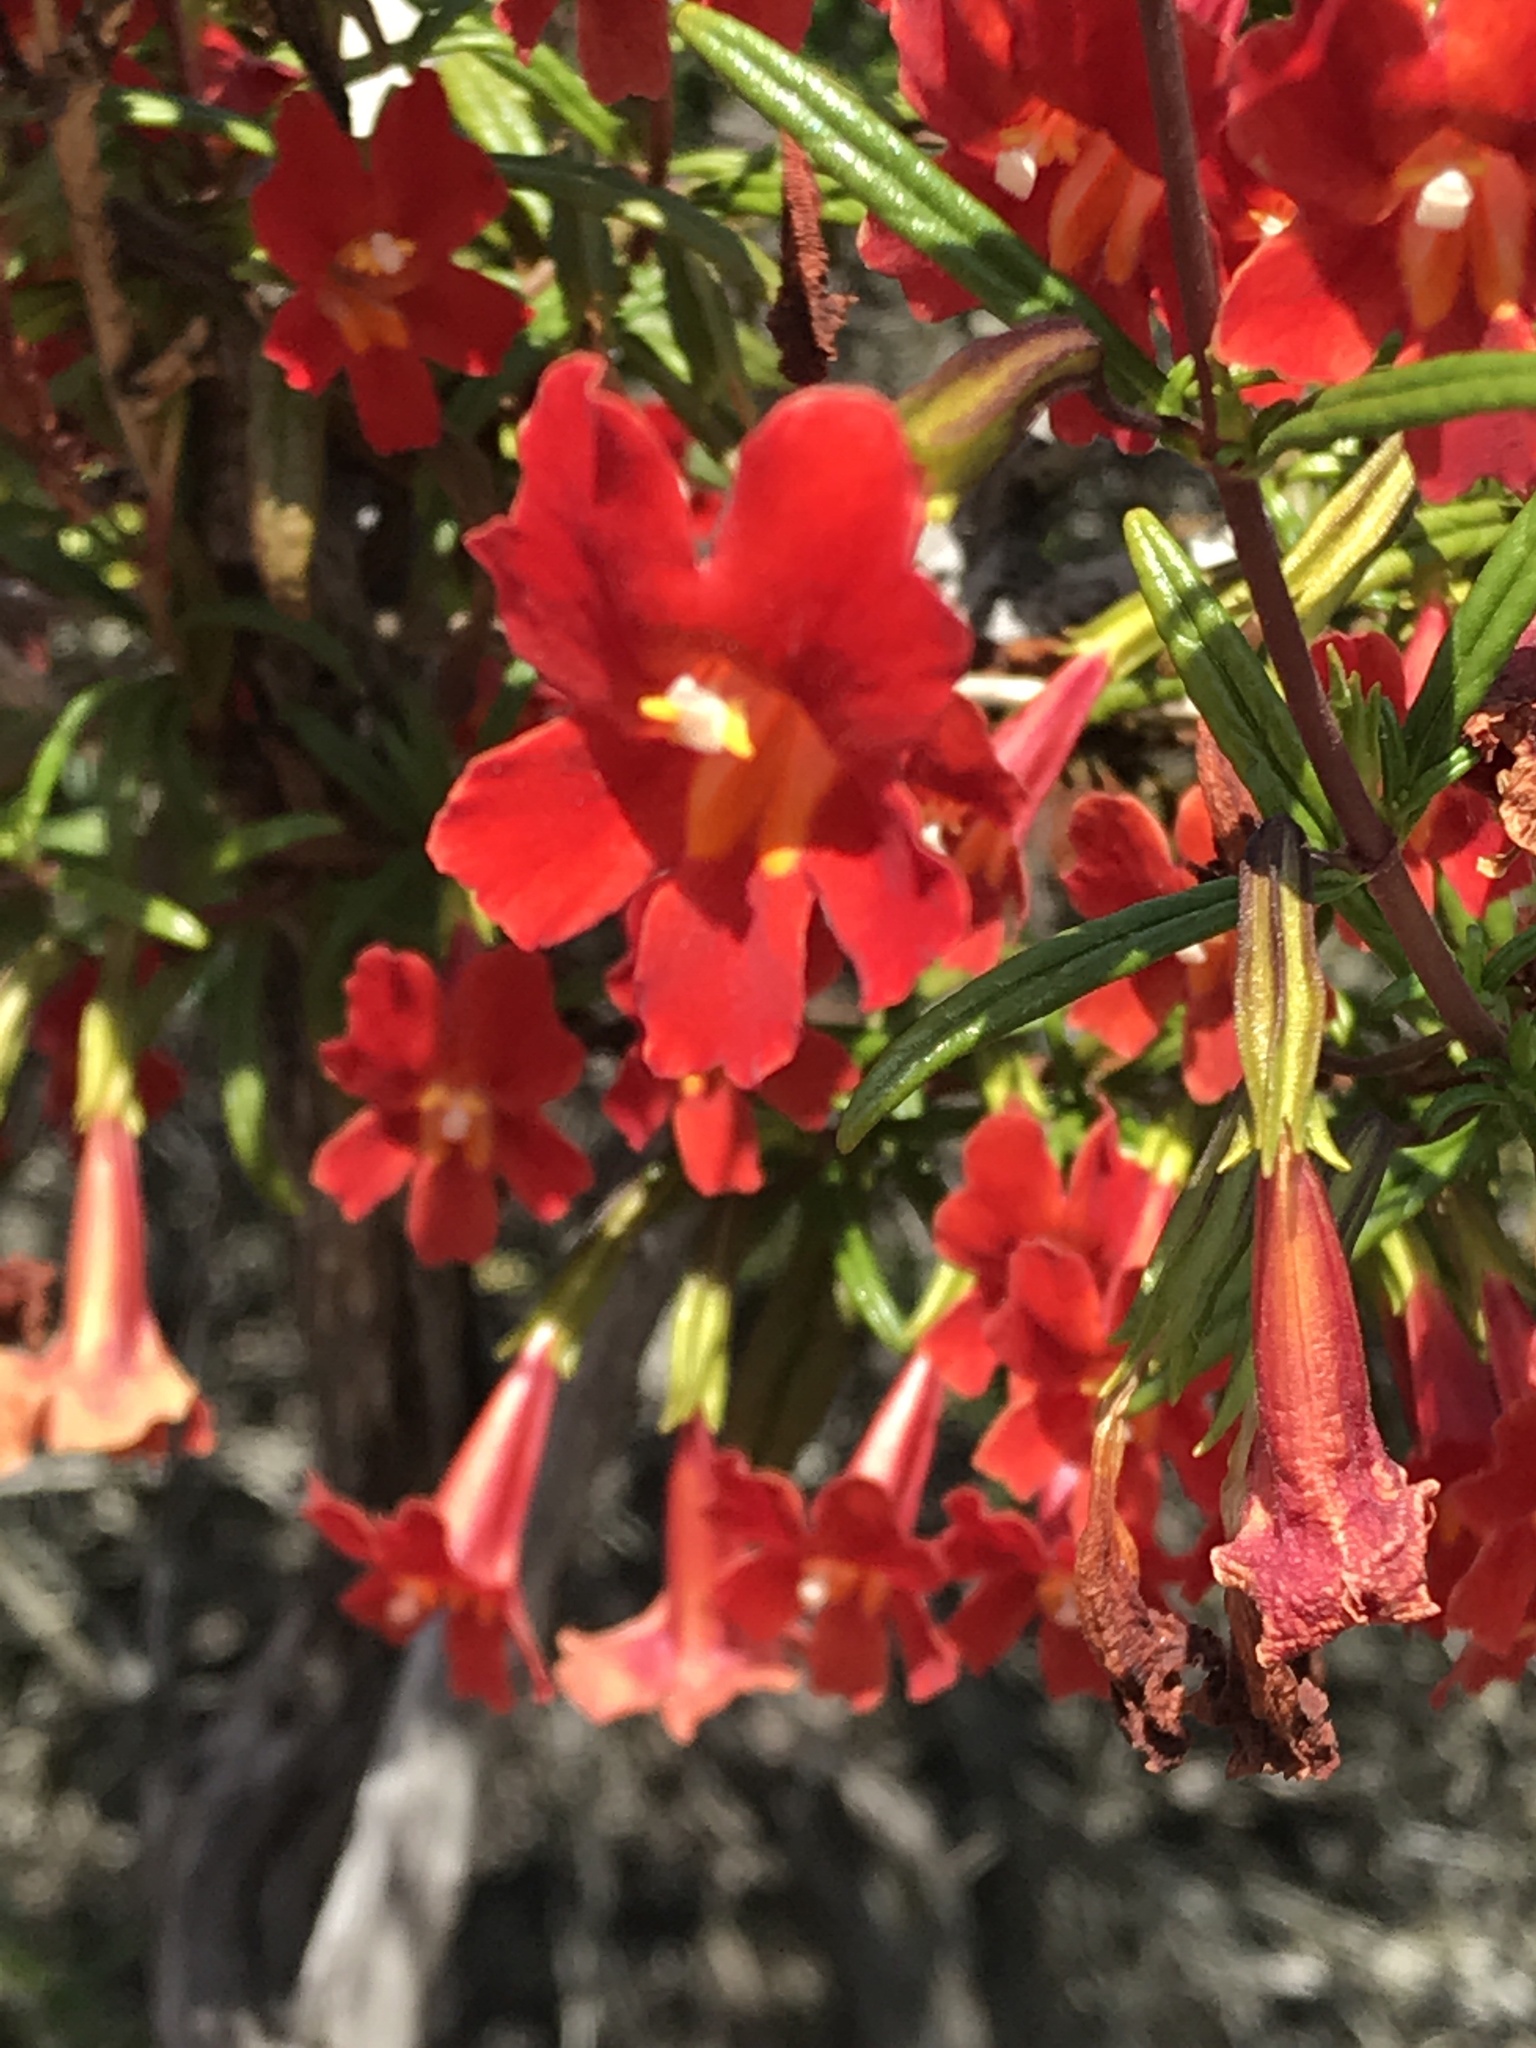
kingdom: Plantae
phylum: Tracheophyta
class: Magnoliopsida
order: Lamiales
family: Phrymaceae
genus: Diplacus
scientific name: Diplacus puniceus
